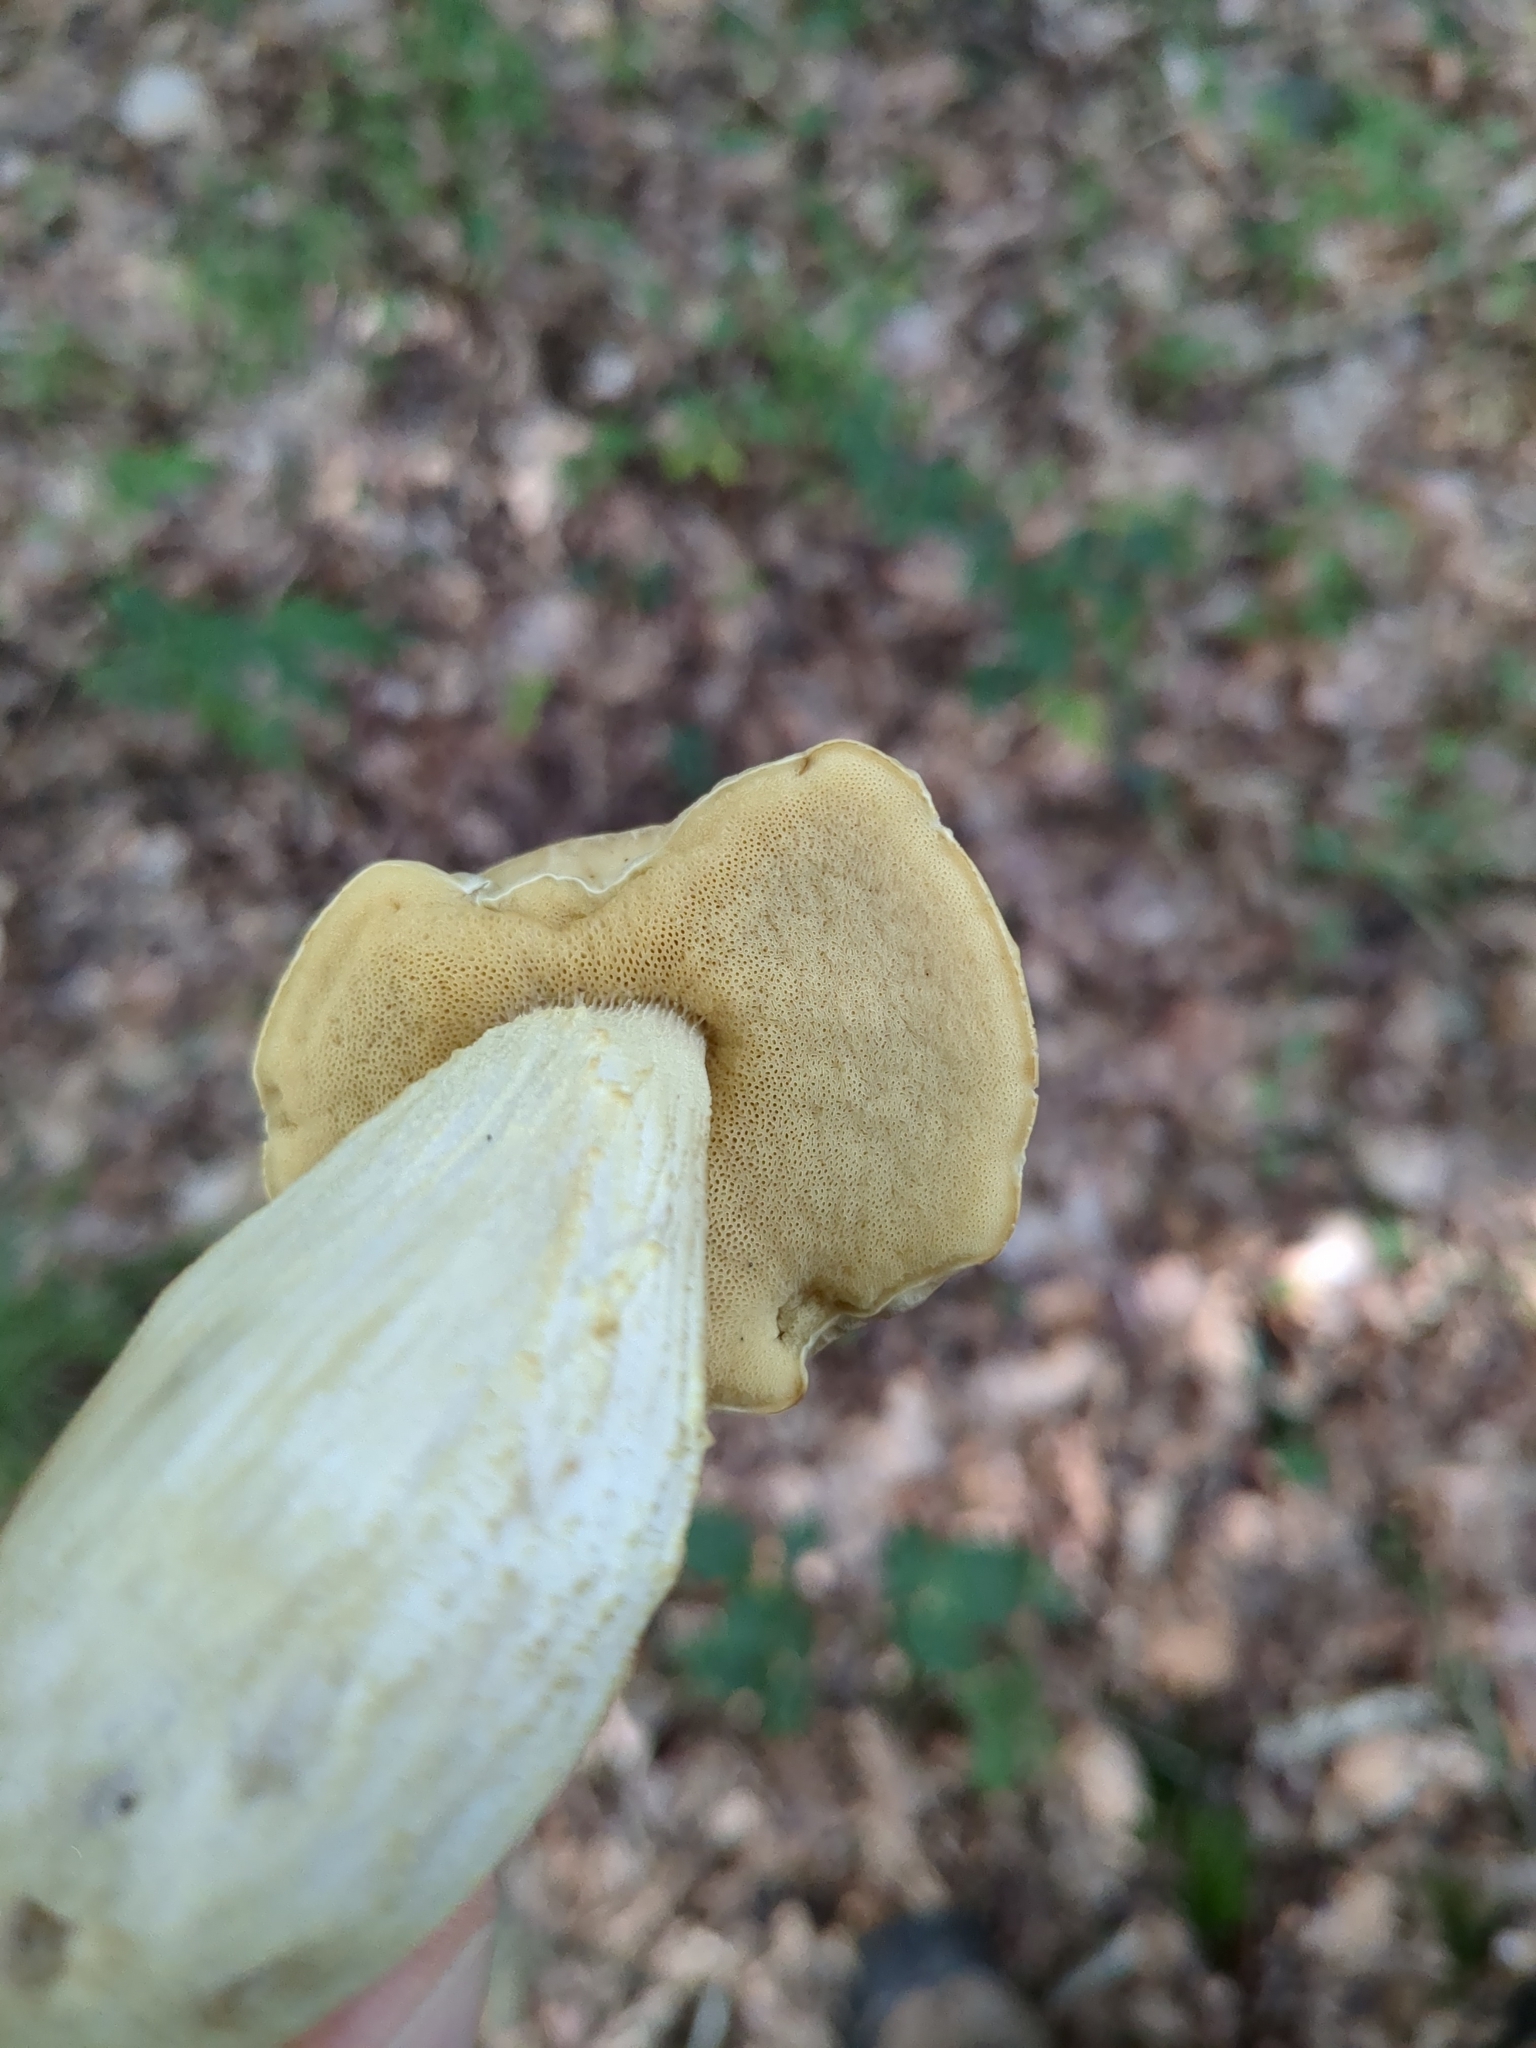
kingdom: Fungi
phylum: Basidiomycota
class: Agaricomycetes
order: Boletales
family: Boletaceae
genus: Leccinellum
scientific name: Leccinellum crocipodium
